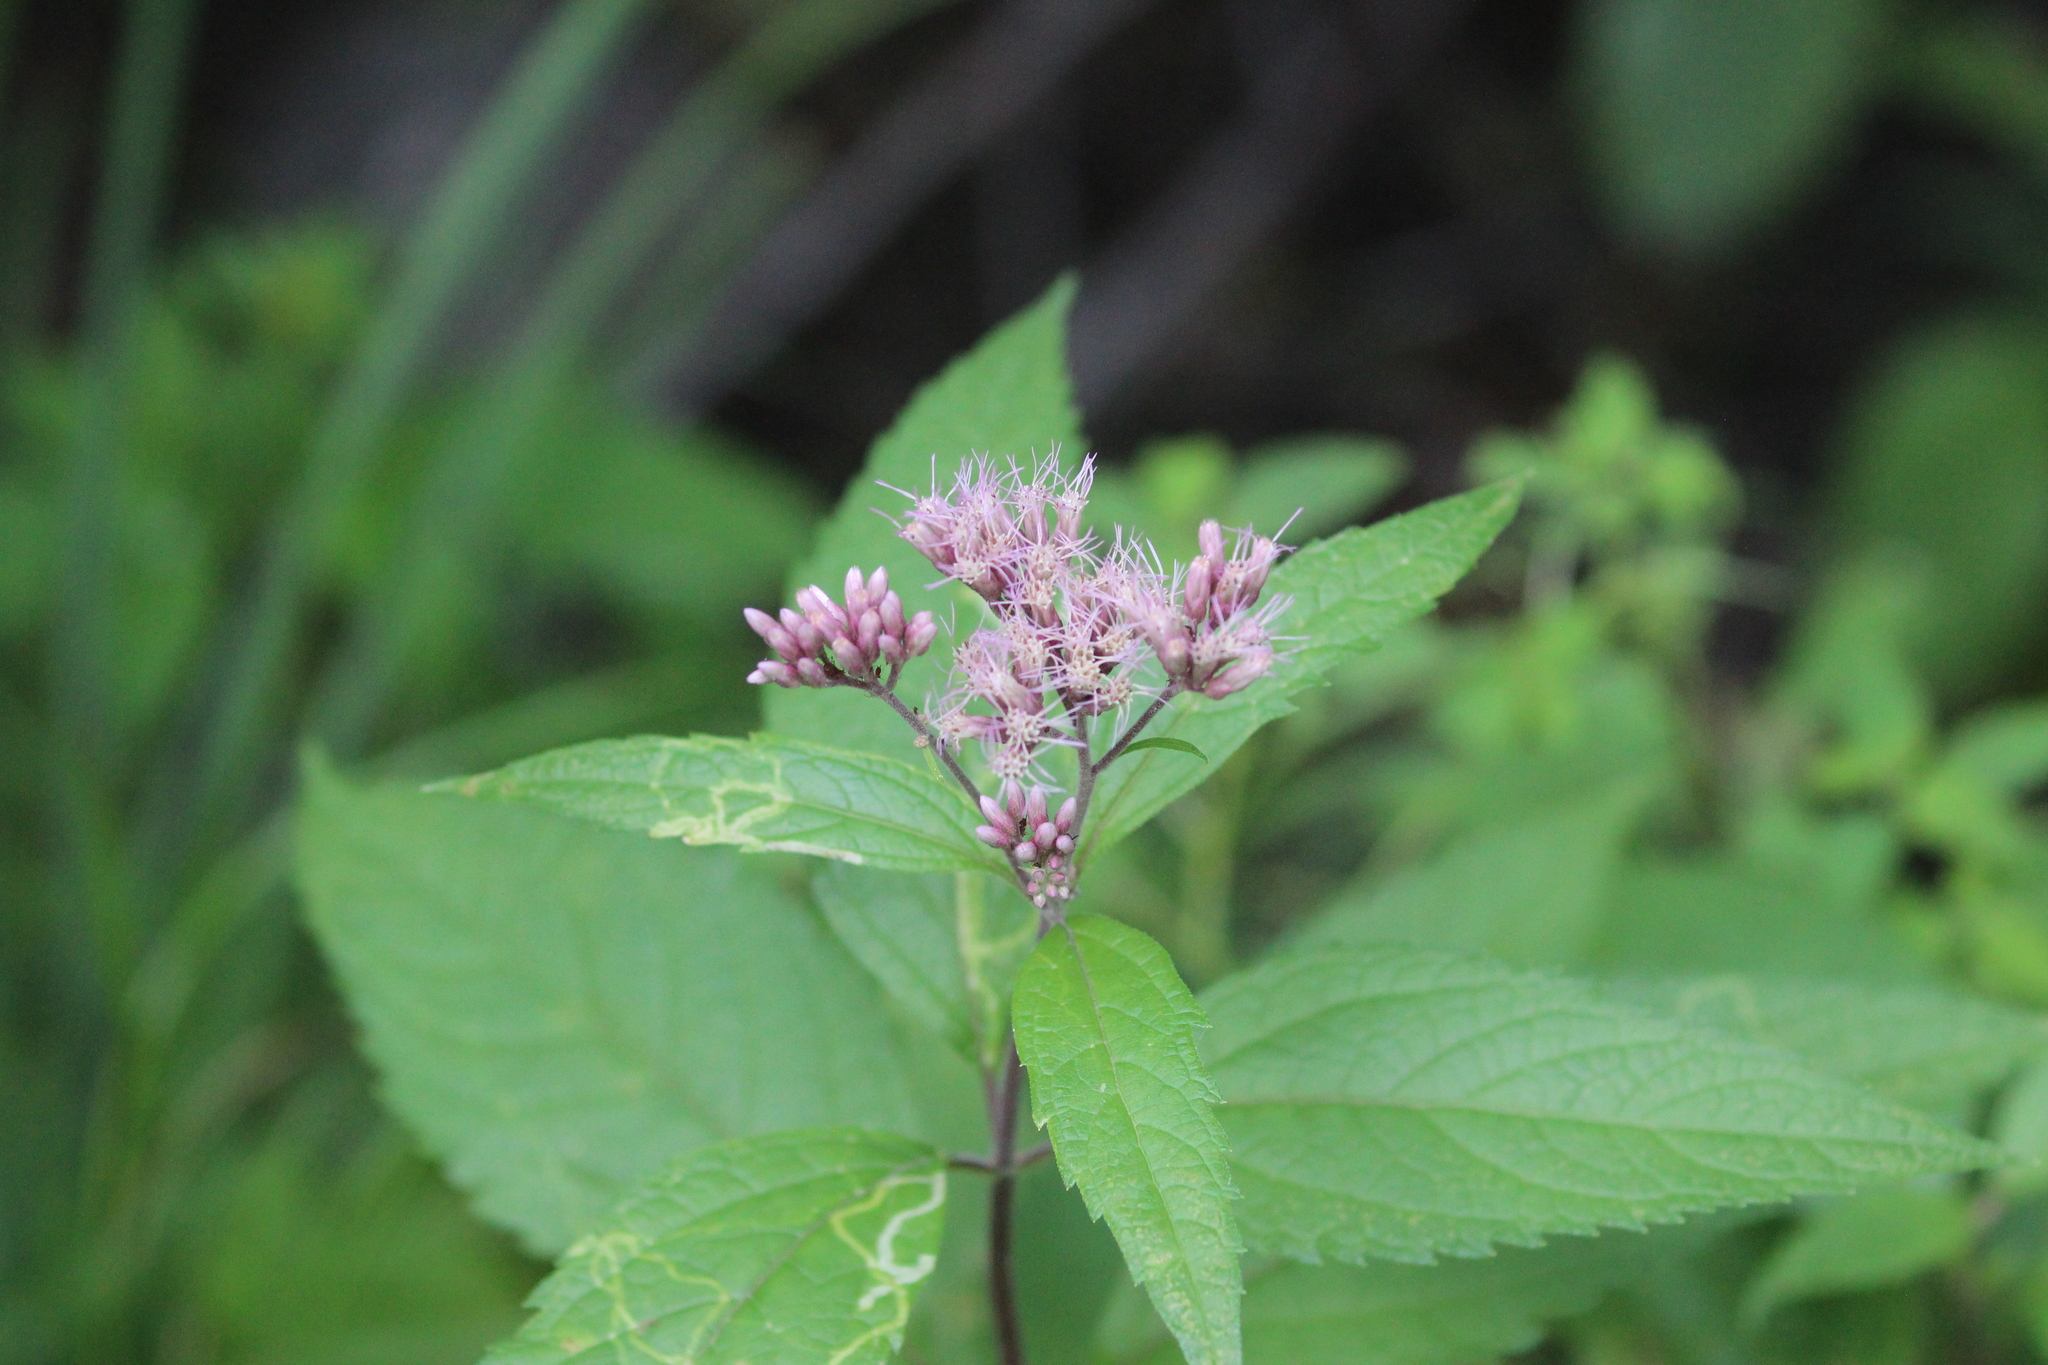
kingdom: Plantae
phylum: Tracheophyta
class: Magnoliopsida
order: Asterales
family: Asteraceae
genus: Eutrochium
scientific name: Eutrochium maculatum
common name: Spotted joe pye weed
